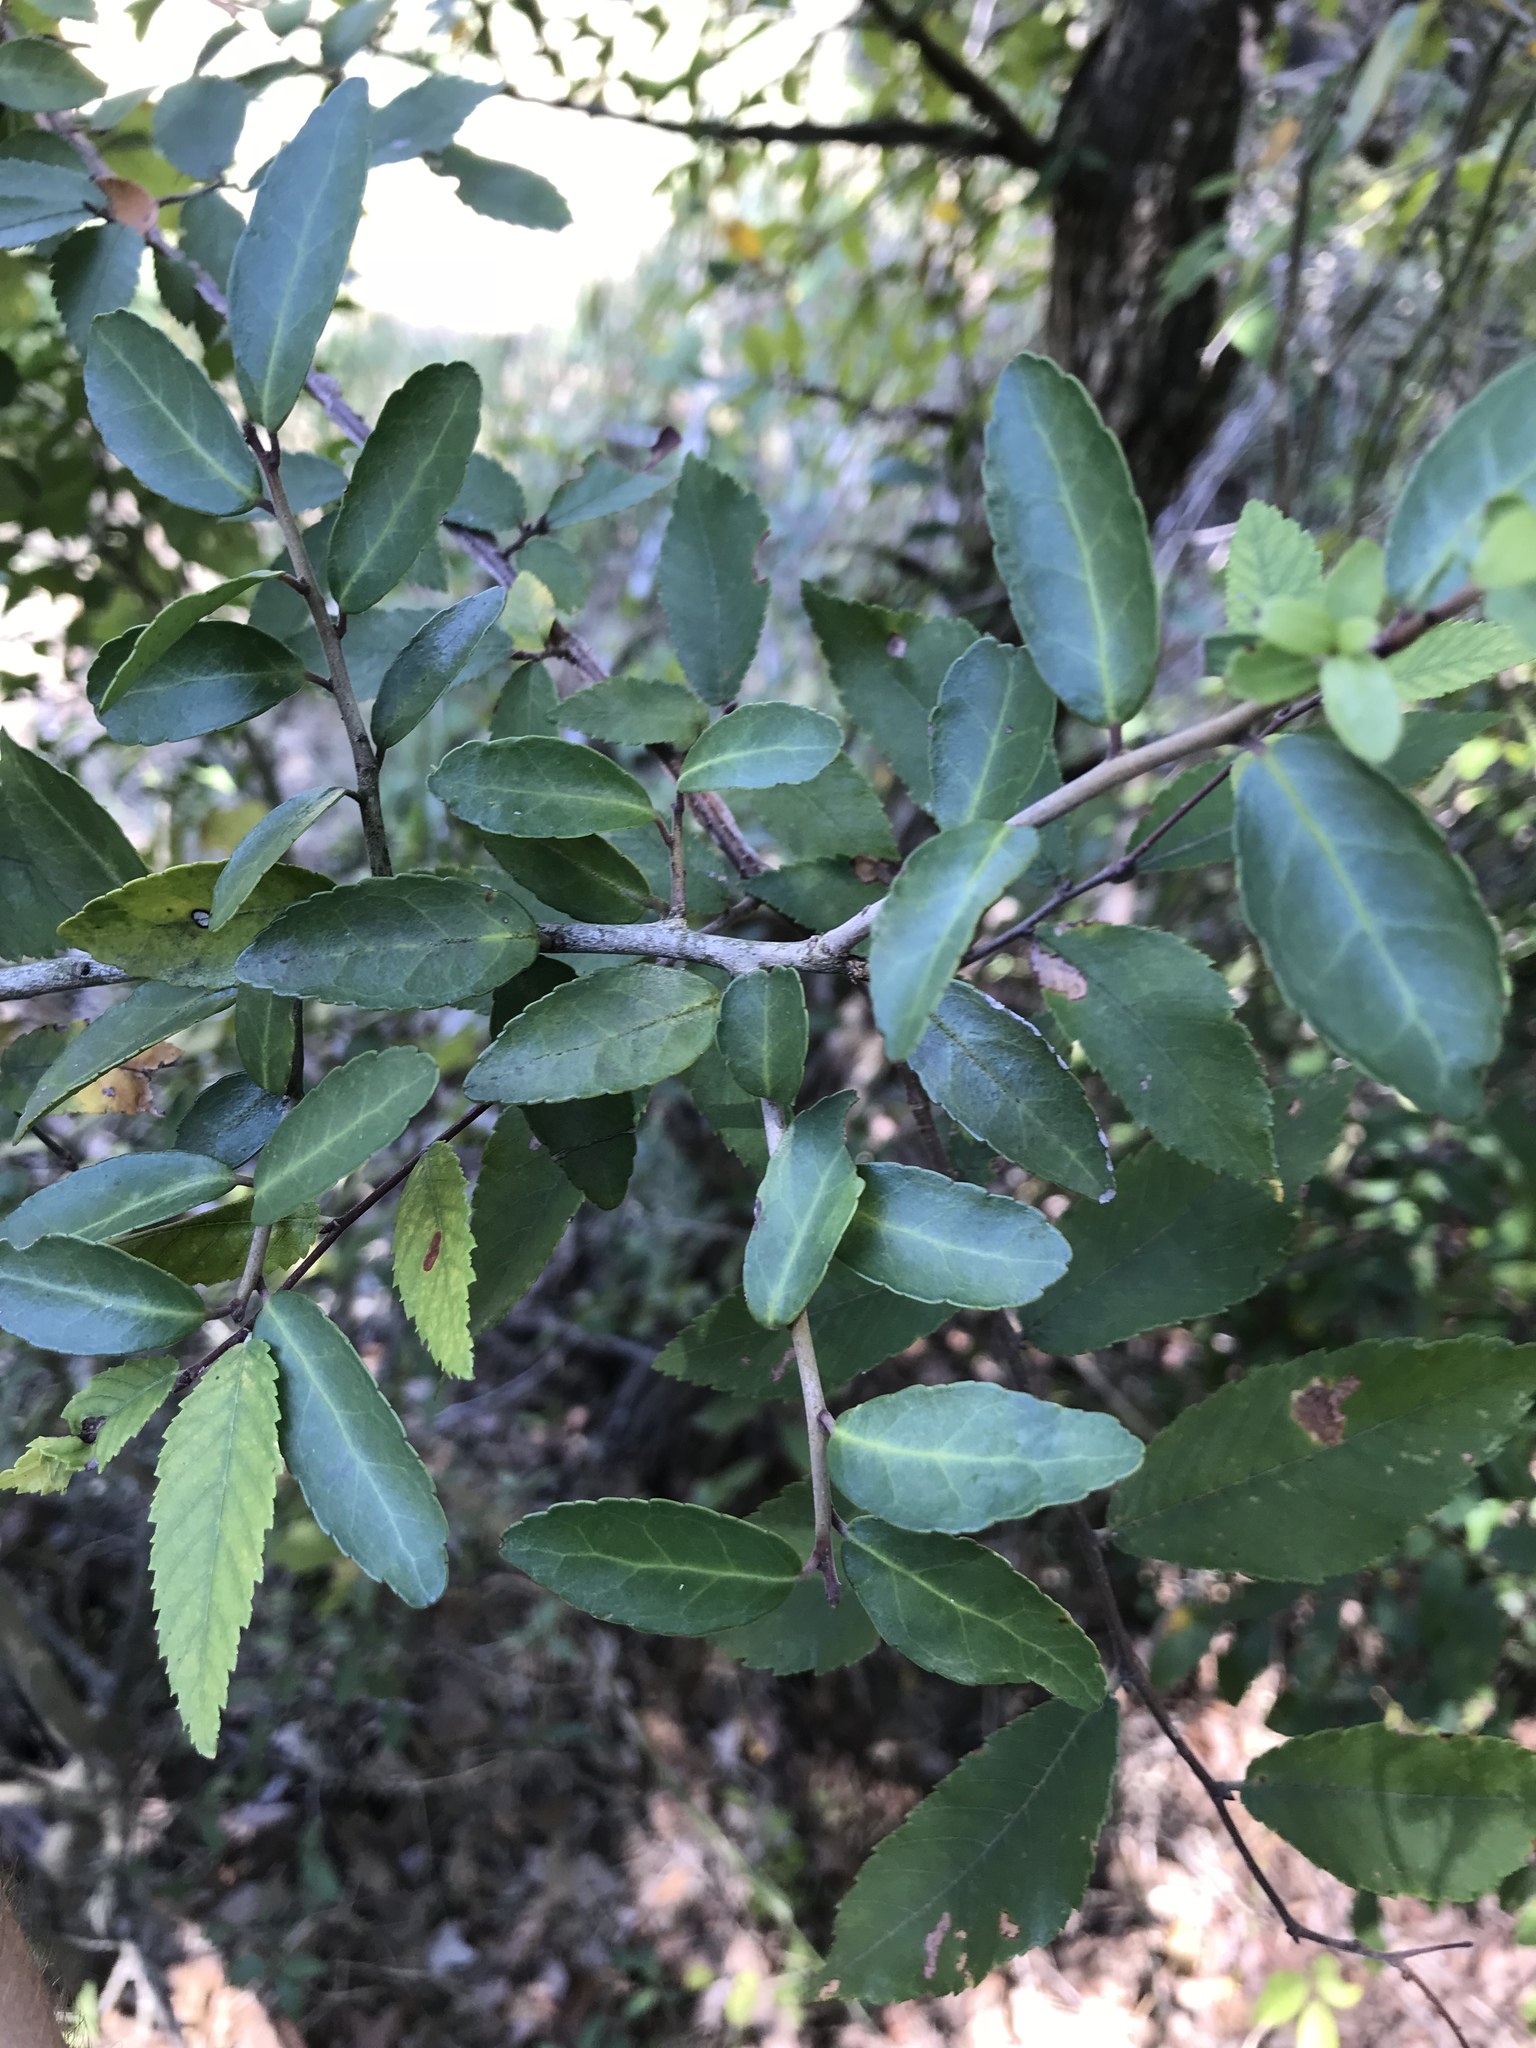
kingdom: Plantae
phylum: Tracheophyta
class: Magnoliopsida
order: Aquifoliales
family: Aquifoliaceae
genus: Ilex
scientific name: Ilex vomitoria
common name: Yaupon holly
